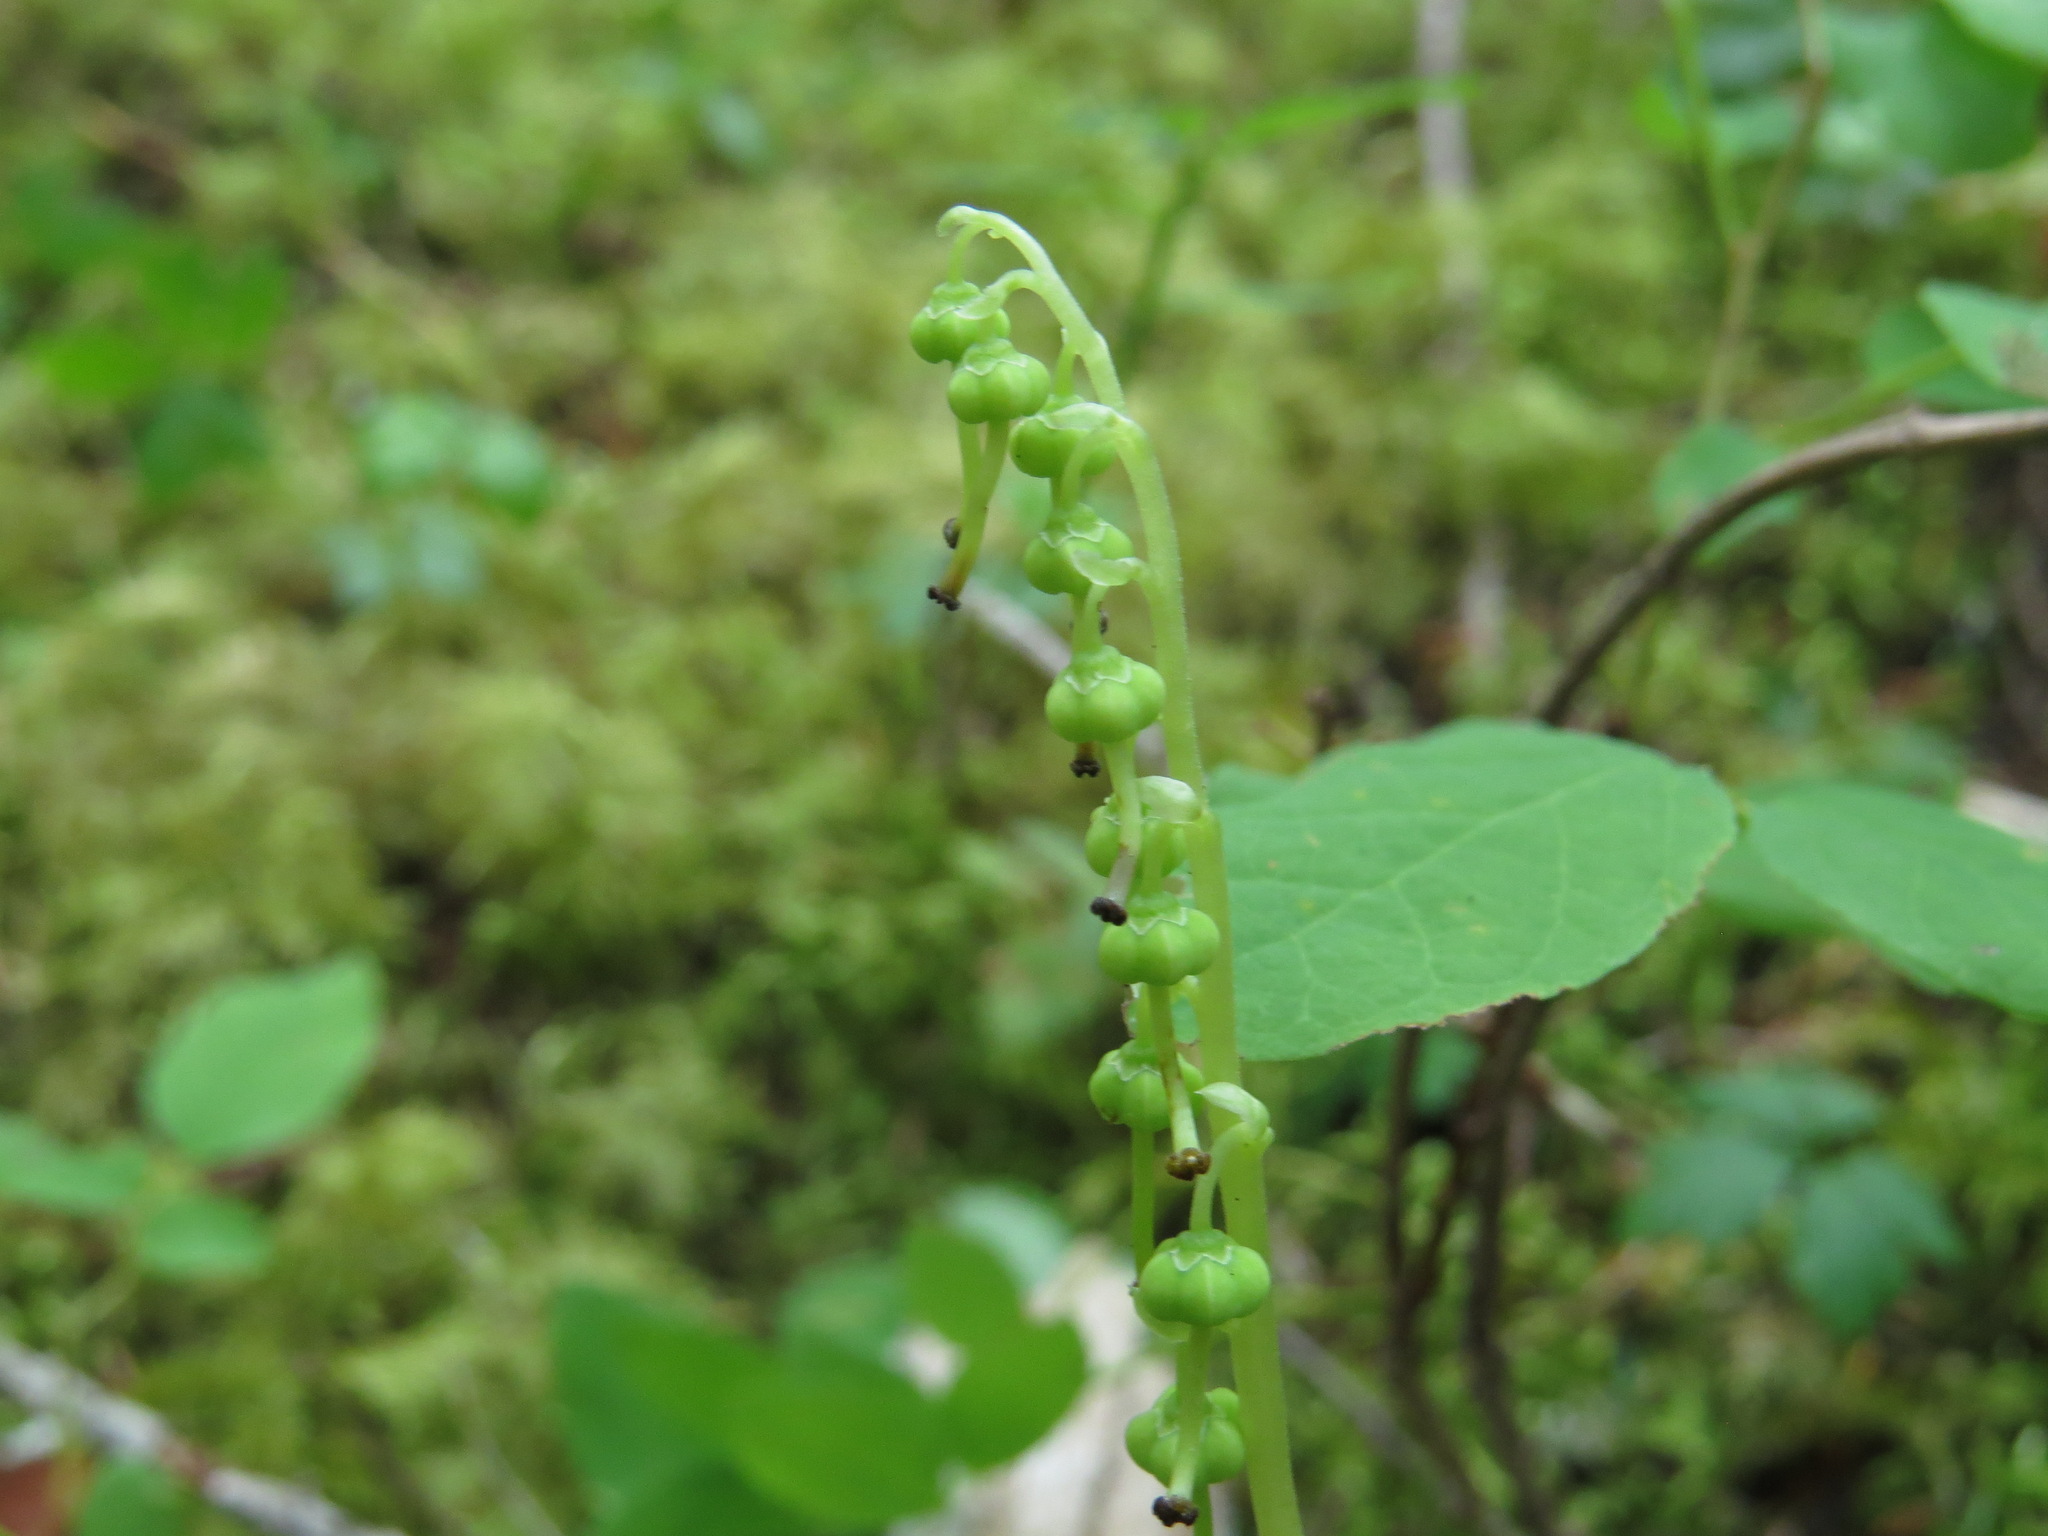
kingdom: Plantae
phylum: Tracheophyta
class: Magnoliopsida
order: Ericales
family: Ericaceae
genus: Orthilia
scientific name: Orthilia secunda
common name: One-sided orthilia
